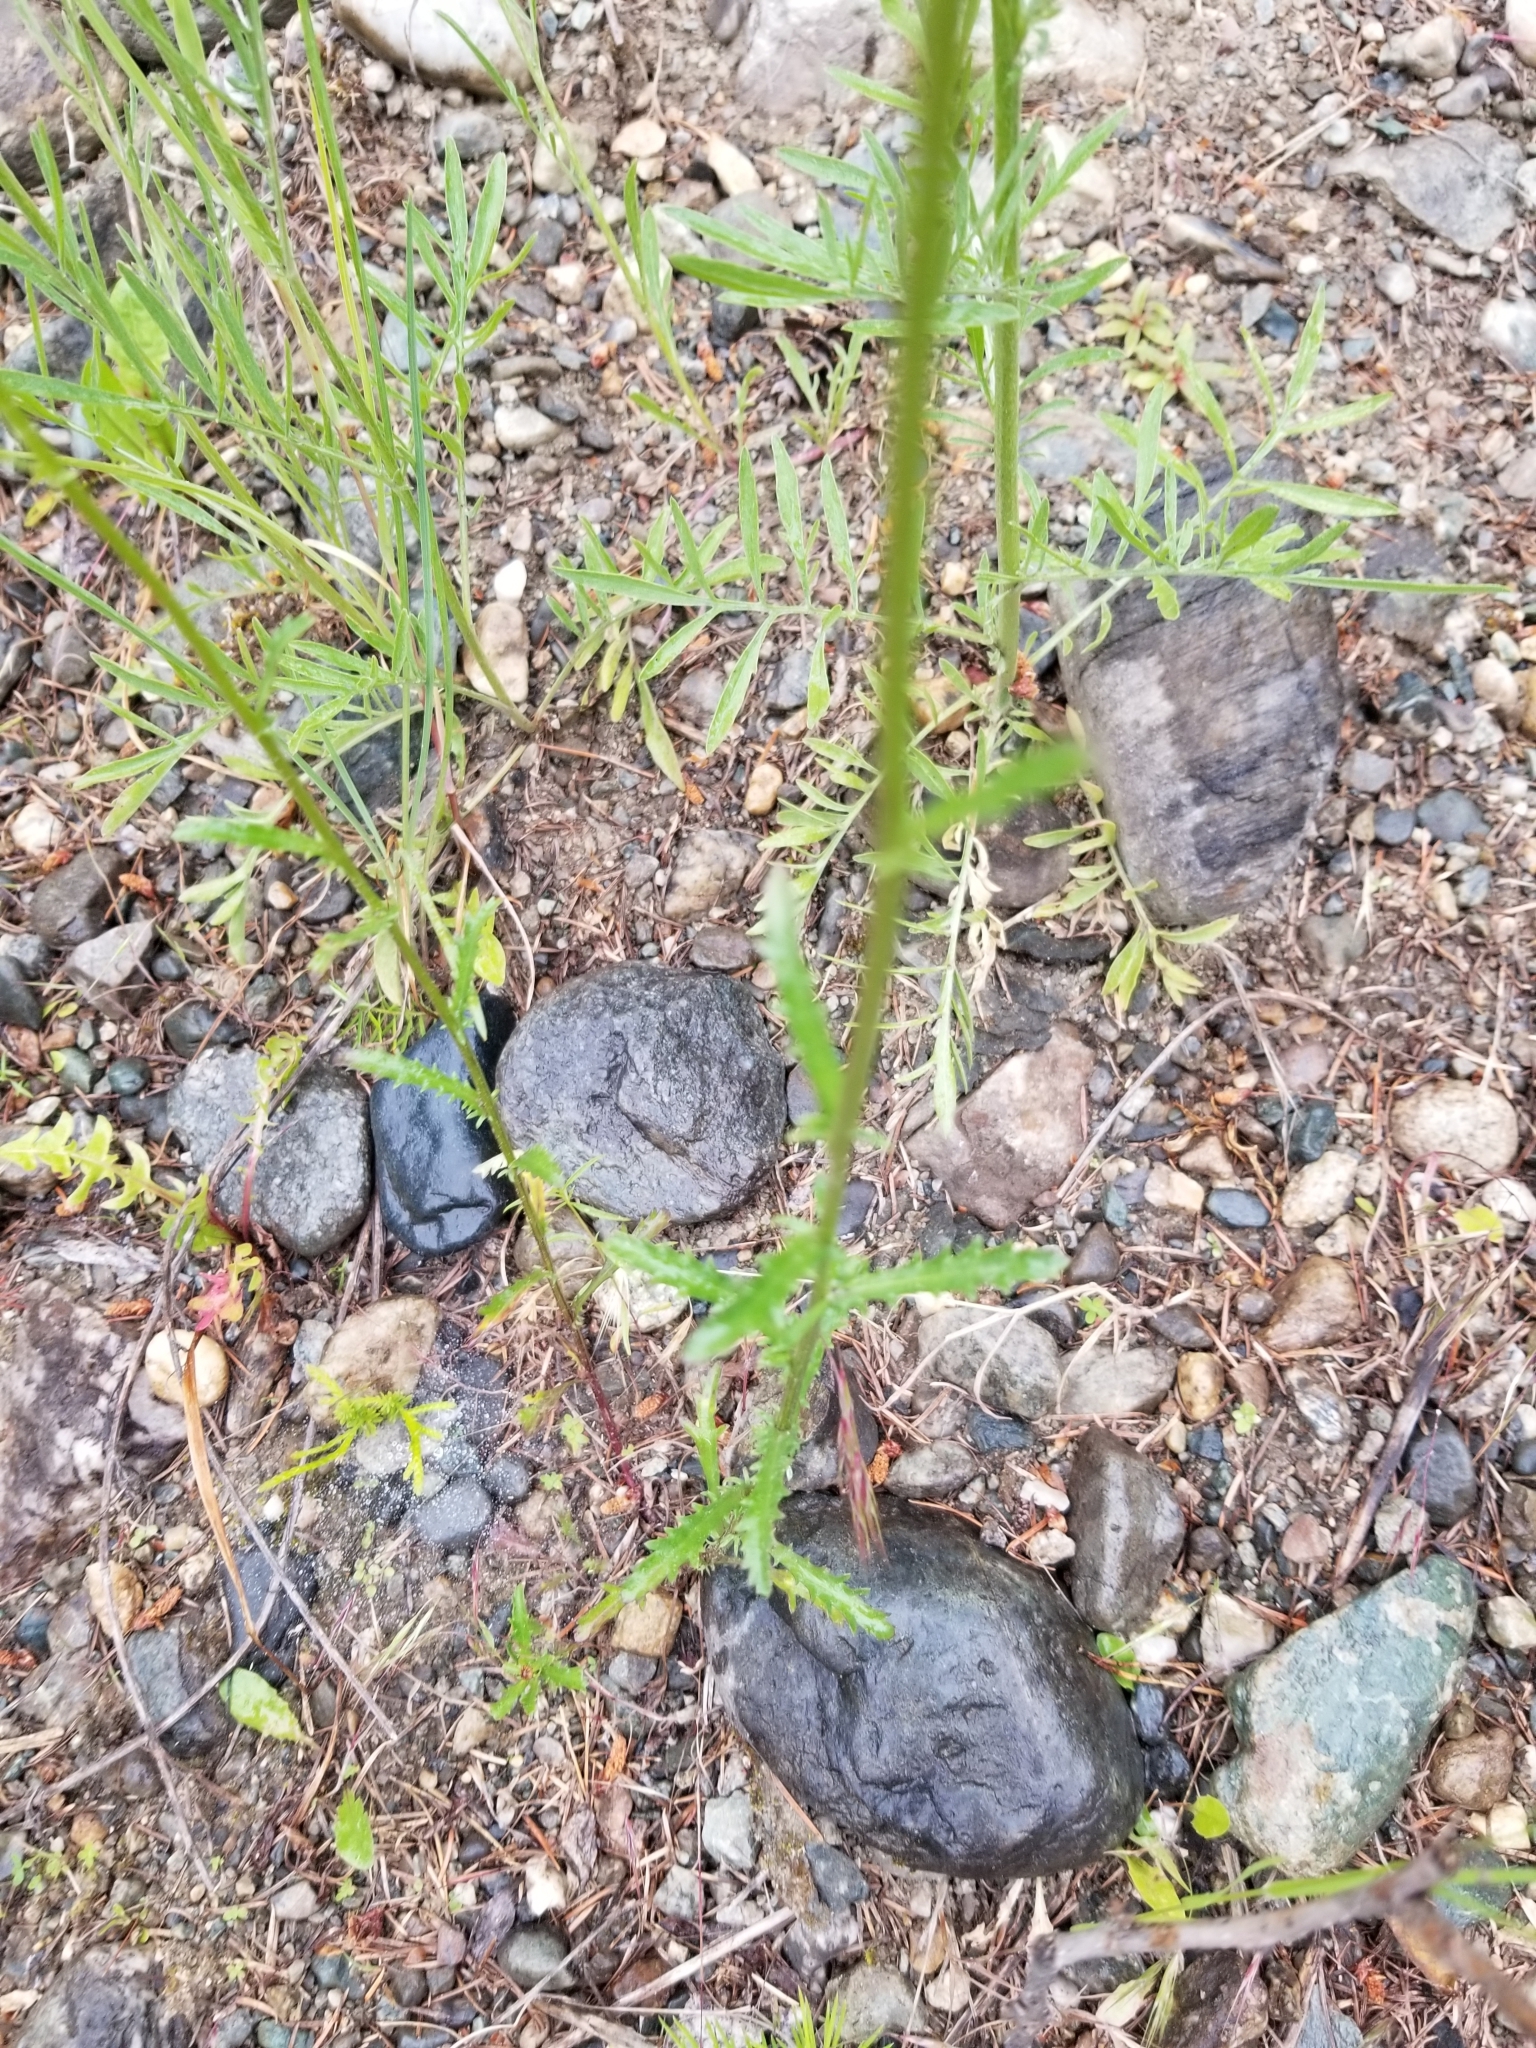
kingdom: Plantae
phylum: Tracheophyta
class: Magnoliopsida
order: Asterales
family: Asteraceae
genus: Leucanthemum
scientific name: Leucanthemum vulgare
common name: Oxeye daisy
